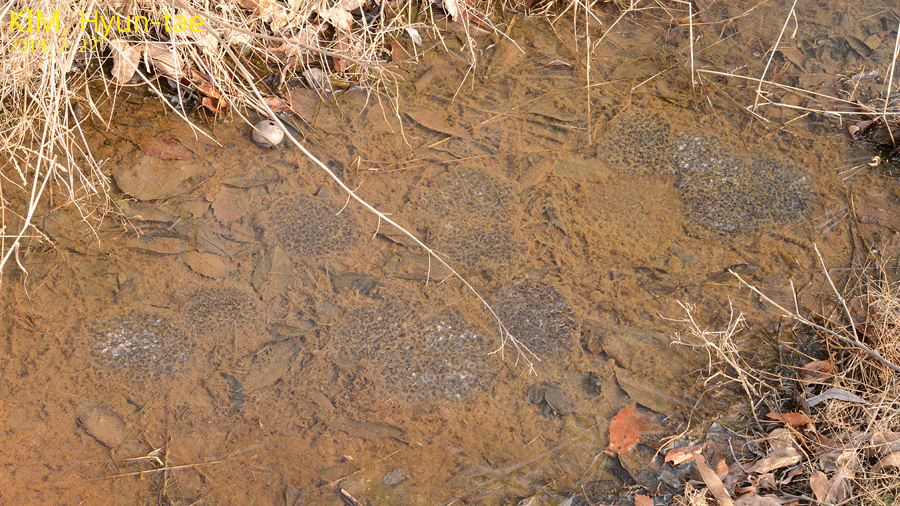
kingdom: Animalia
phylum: Chordata
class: Amphibia
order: Anura
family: Ranidae
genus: Rana
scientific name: Rana uenoi
